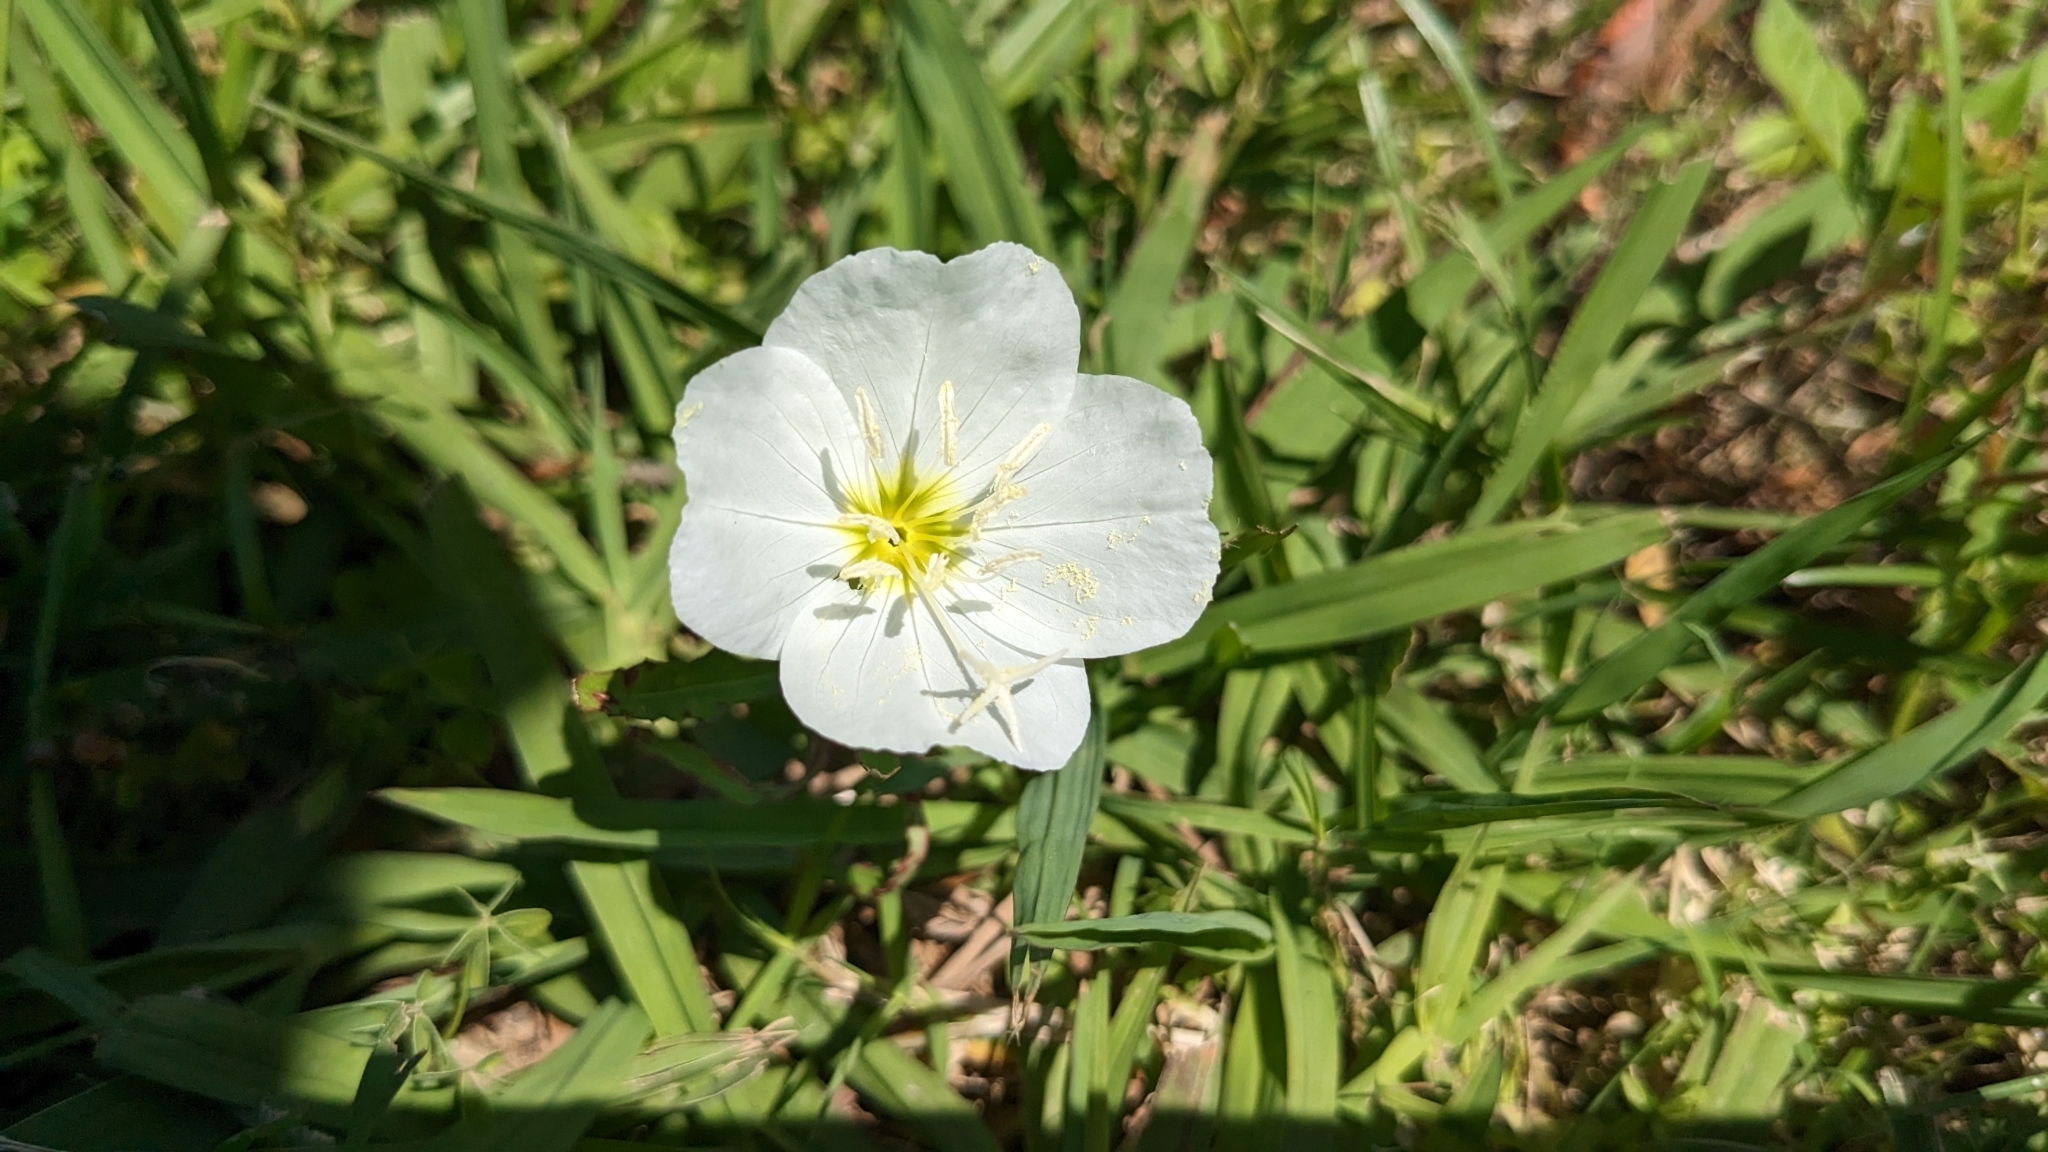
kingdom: Plantae
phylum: Tracheophyta
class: Magnoliopsida
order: Myrtales
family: Onagraceae
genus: Oenothera
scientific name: Oenothera speciosa
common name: White evening-primrose
